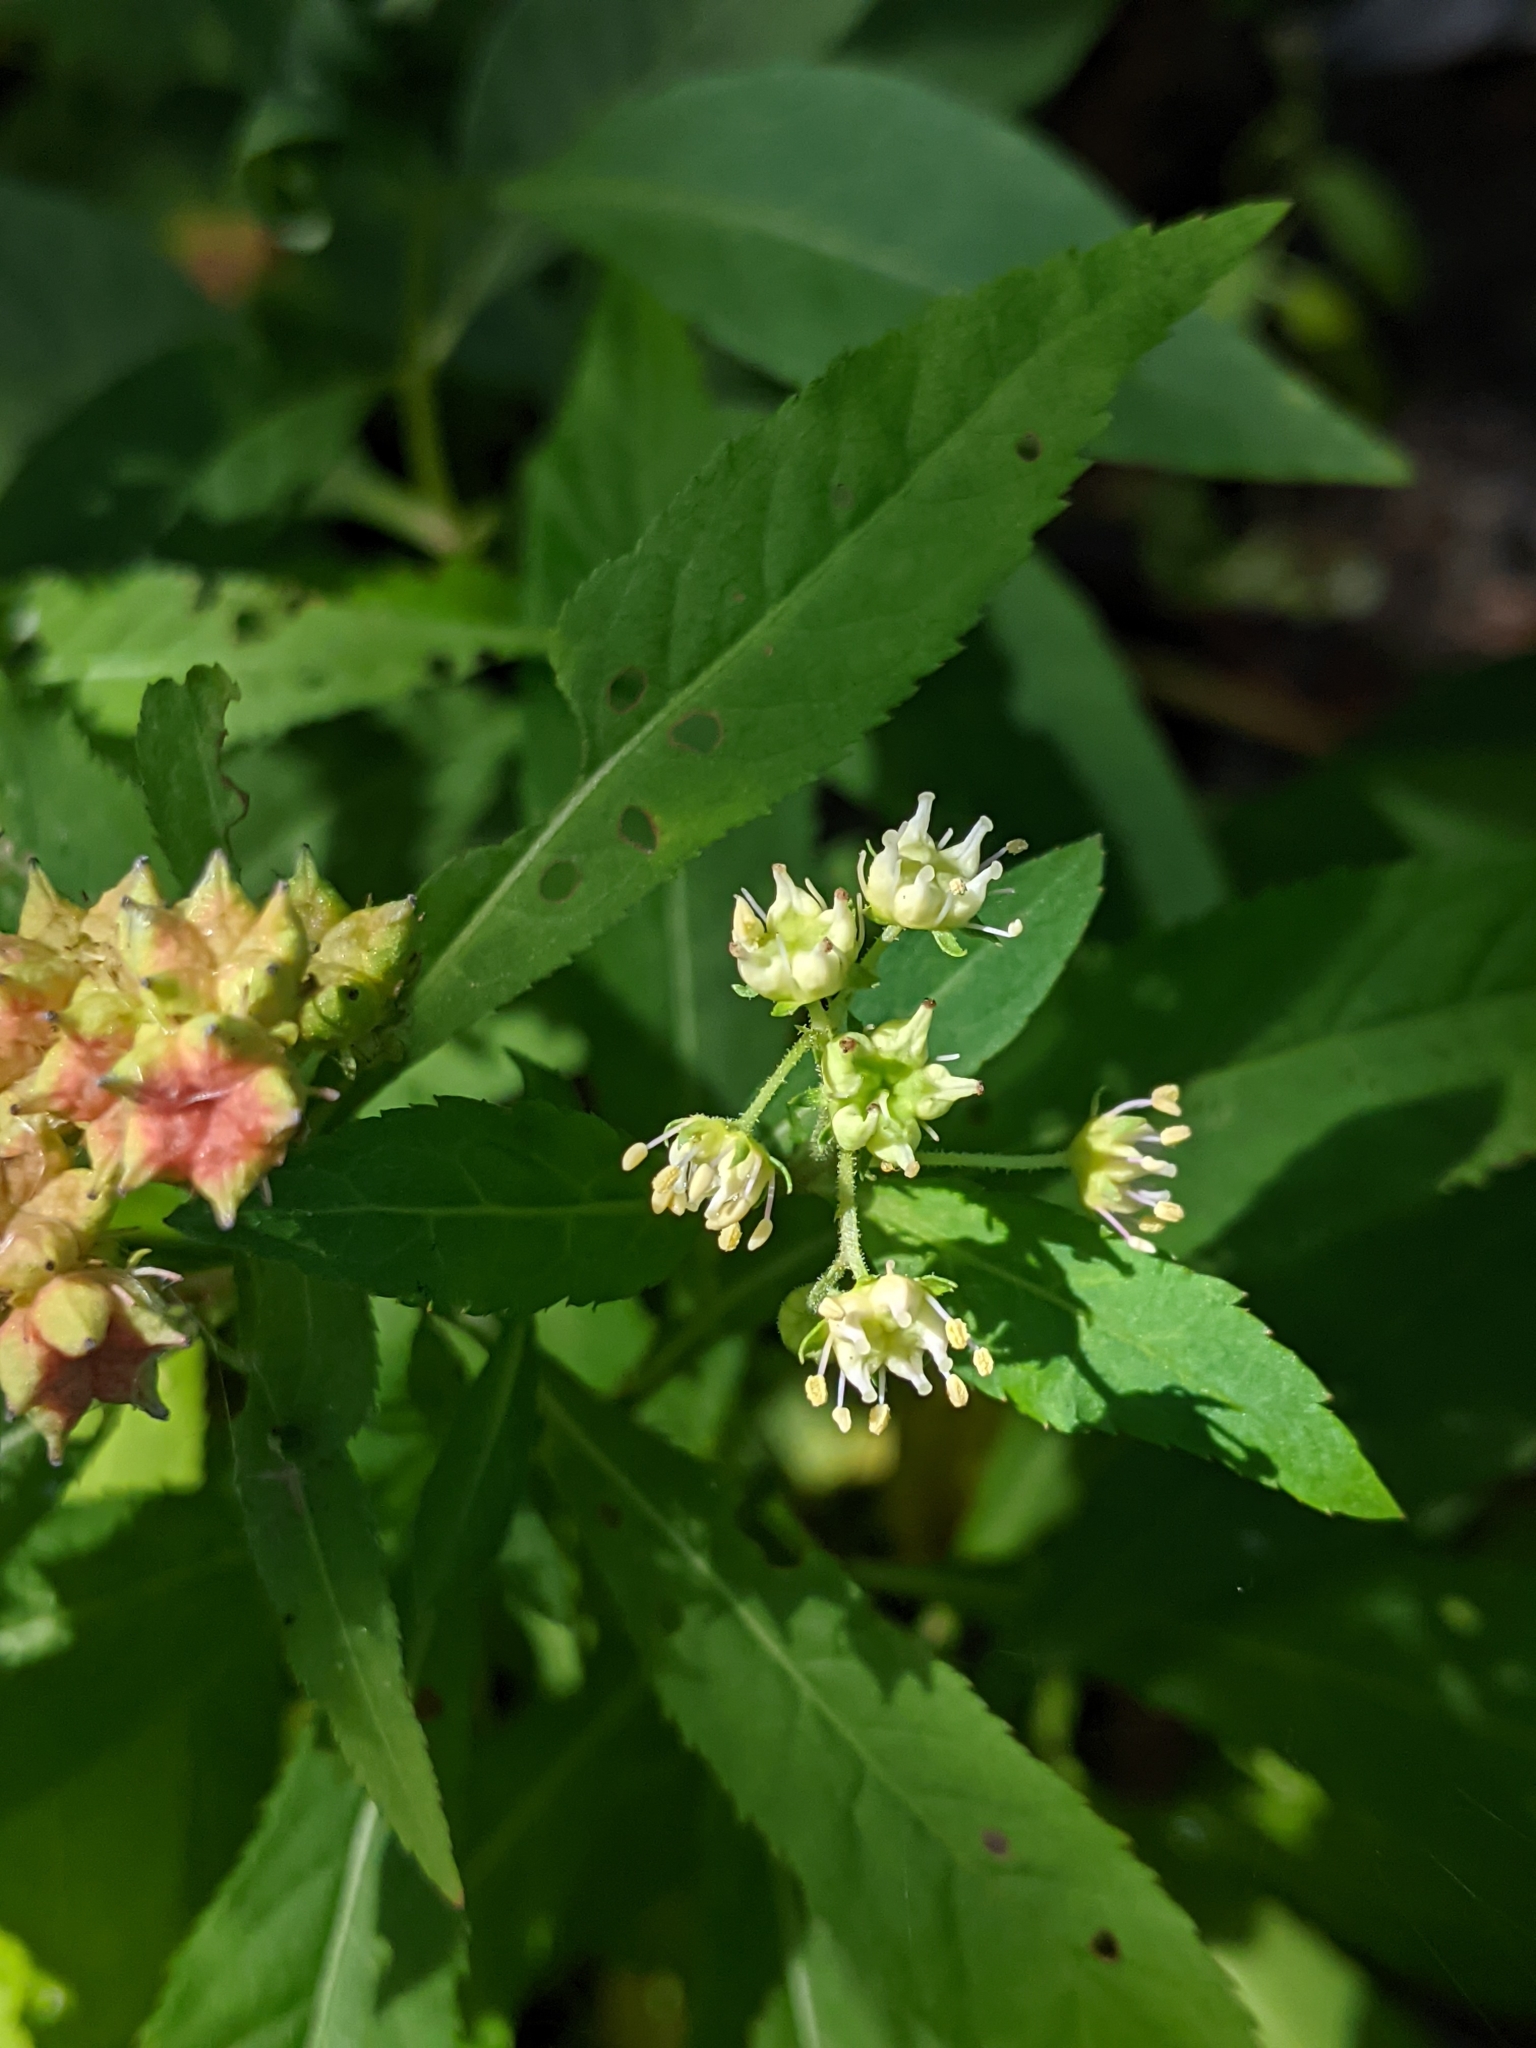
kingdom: Plantae
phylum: Tracheophyta
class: Magnoliopsida
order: Saxifragales
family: Penthoraceae
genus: Penthorum
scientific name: Penthorum sedoides
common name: Ditch stonecrop
